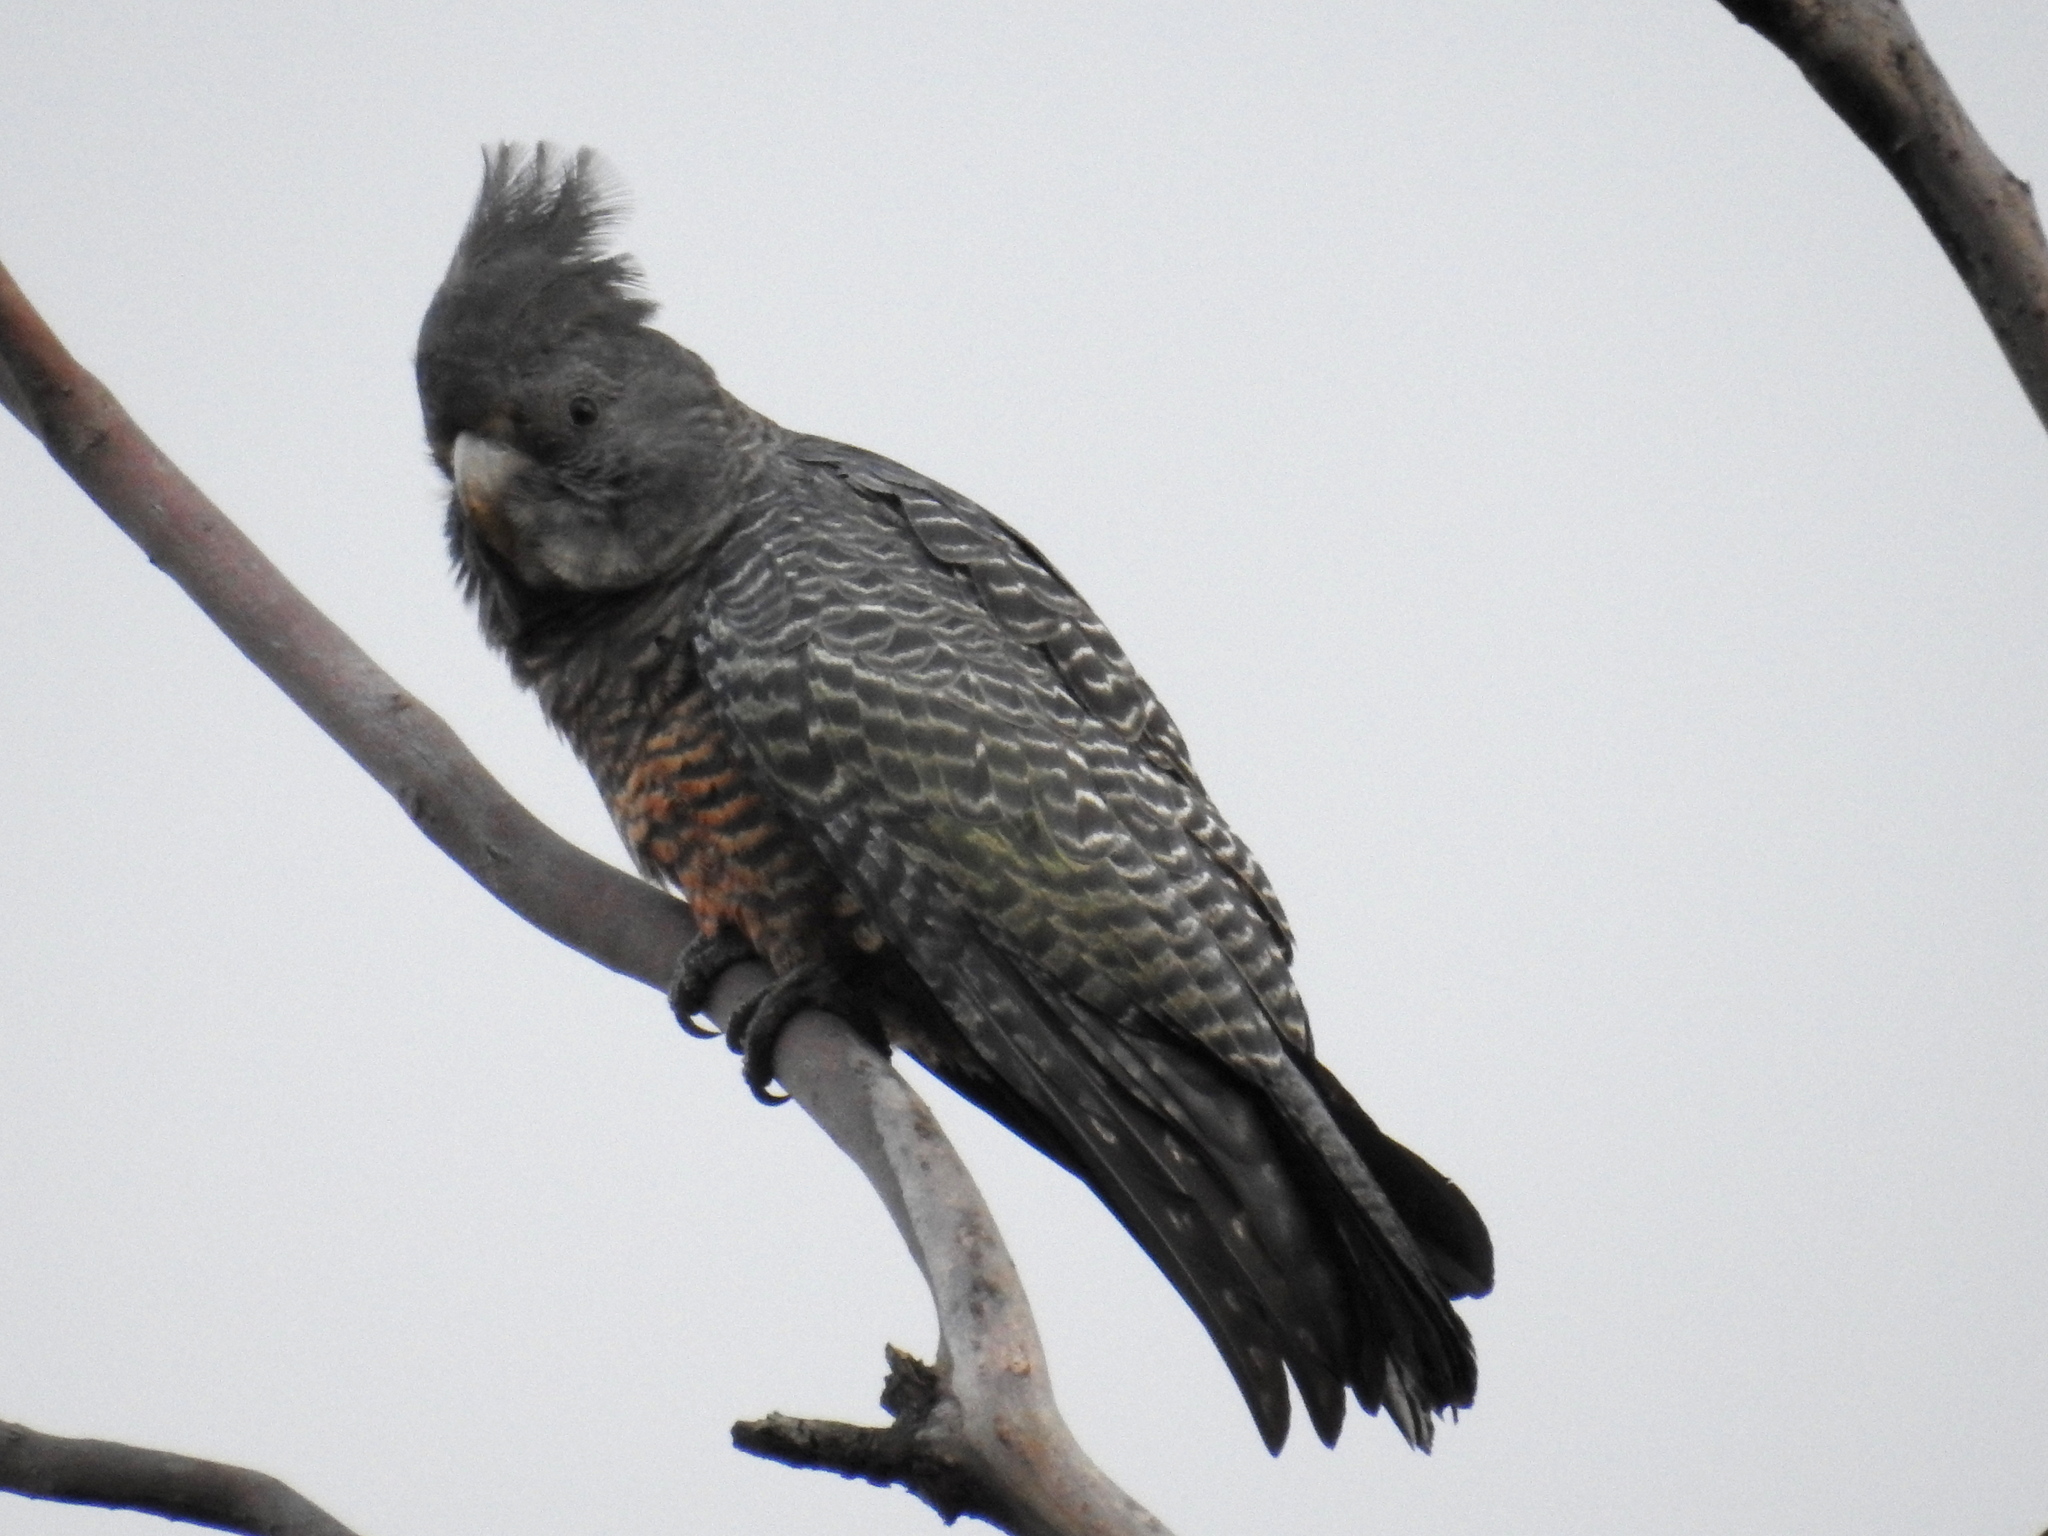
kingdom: Animalia
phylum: Chordata
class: Aves
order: Psittaciformes
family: Psittacidae
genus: Callocephalon
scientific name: Callocephalon fimbriatum
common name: Gang-gang cockatoo
